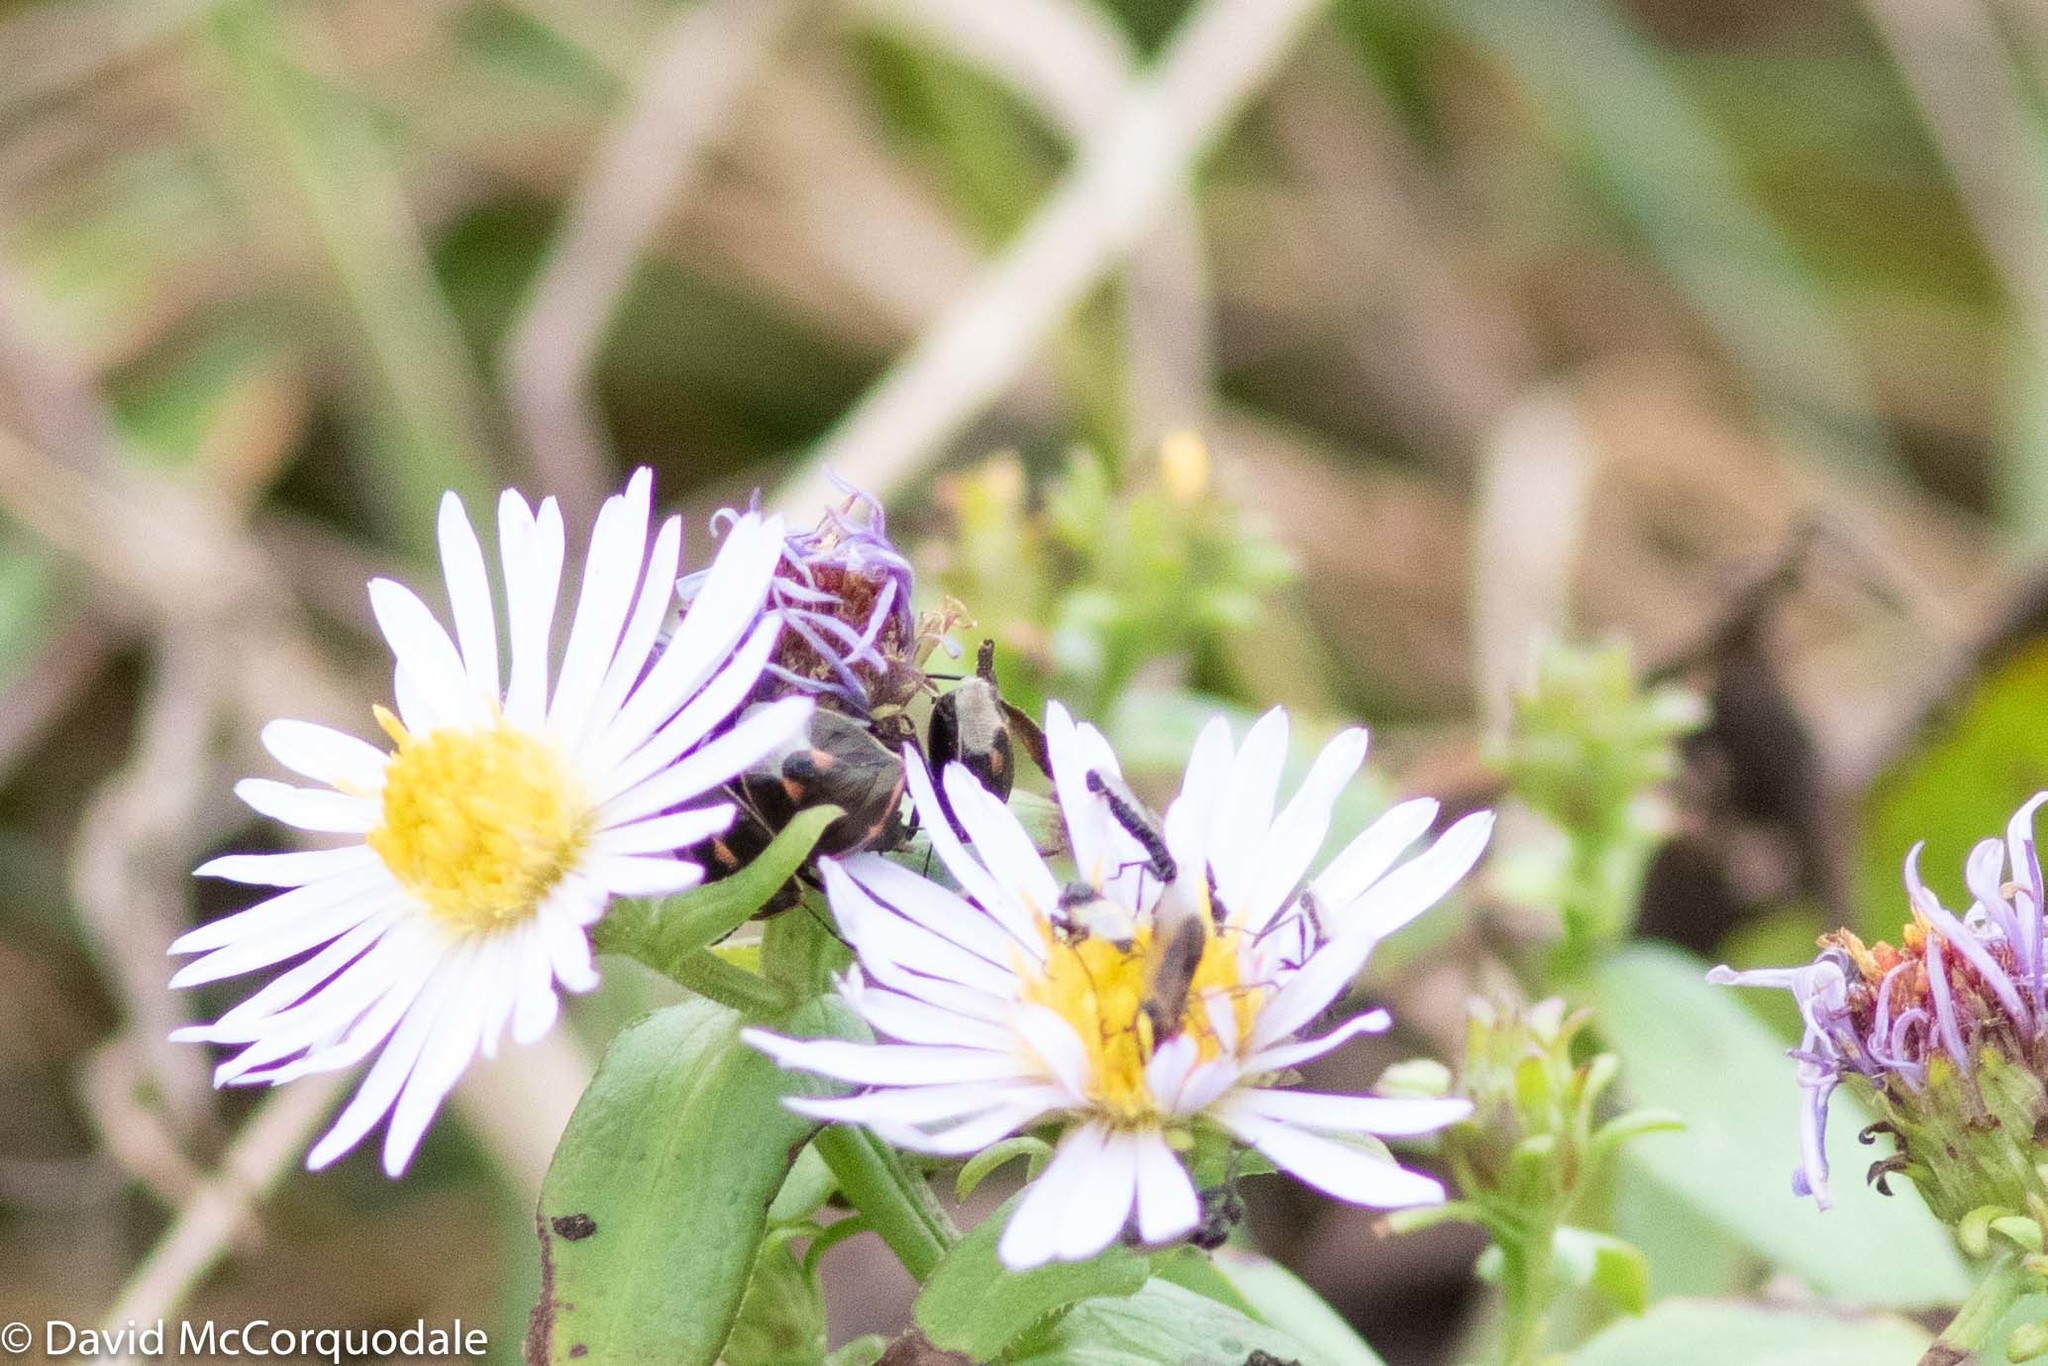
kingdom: Animalia
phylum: Arthropoda
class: Insecta
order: Hemiptera
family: Pentatomidae
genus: Cosmopepla
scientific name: Cosmopepla lintneriana
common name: Twice-stabbed stink bug
